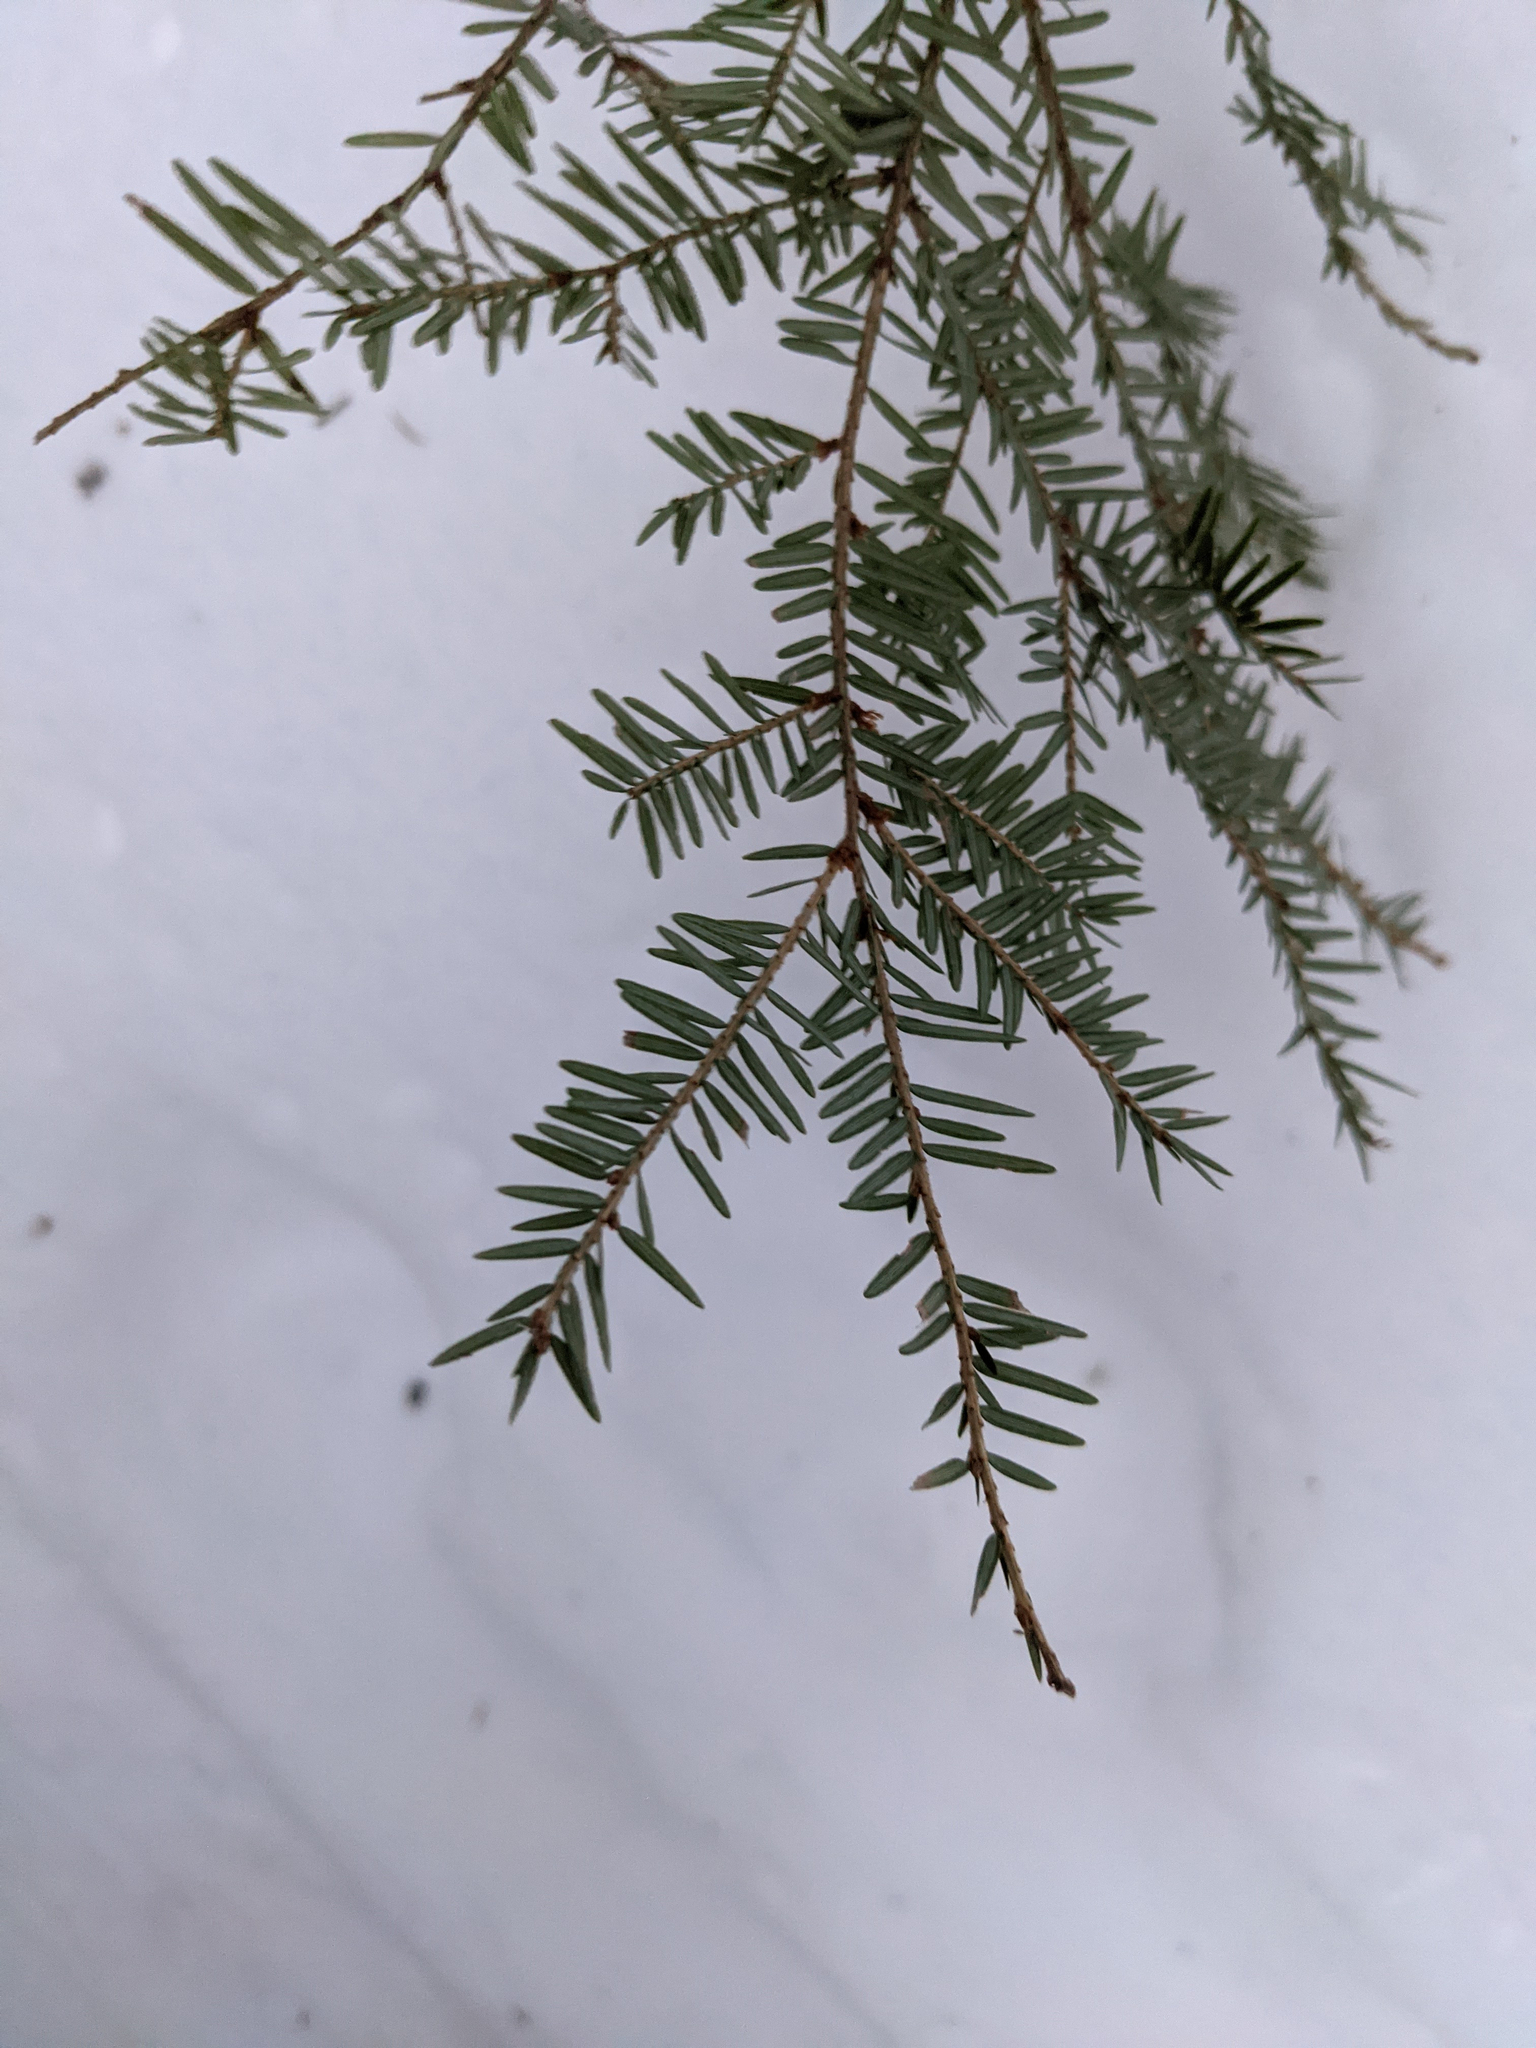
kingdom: Plantae
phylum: Tracheophyta
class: Pinopsida
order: Pinales
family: Pinaceae
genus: Tsuga
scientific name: Tsuga canadensis
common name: Eastern hemlock
